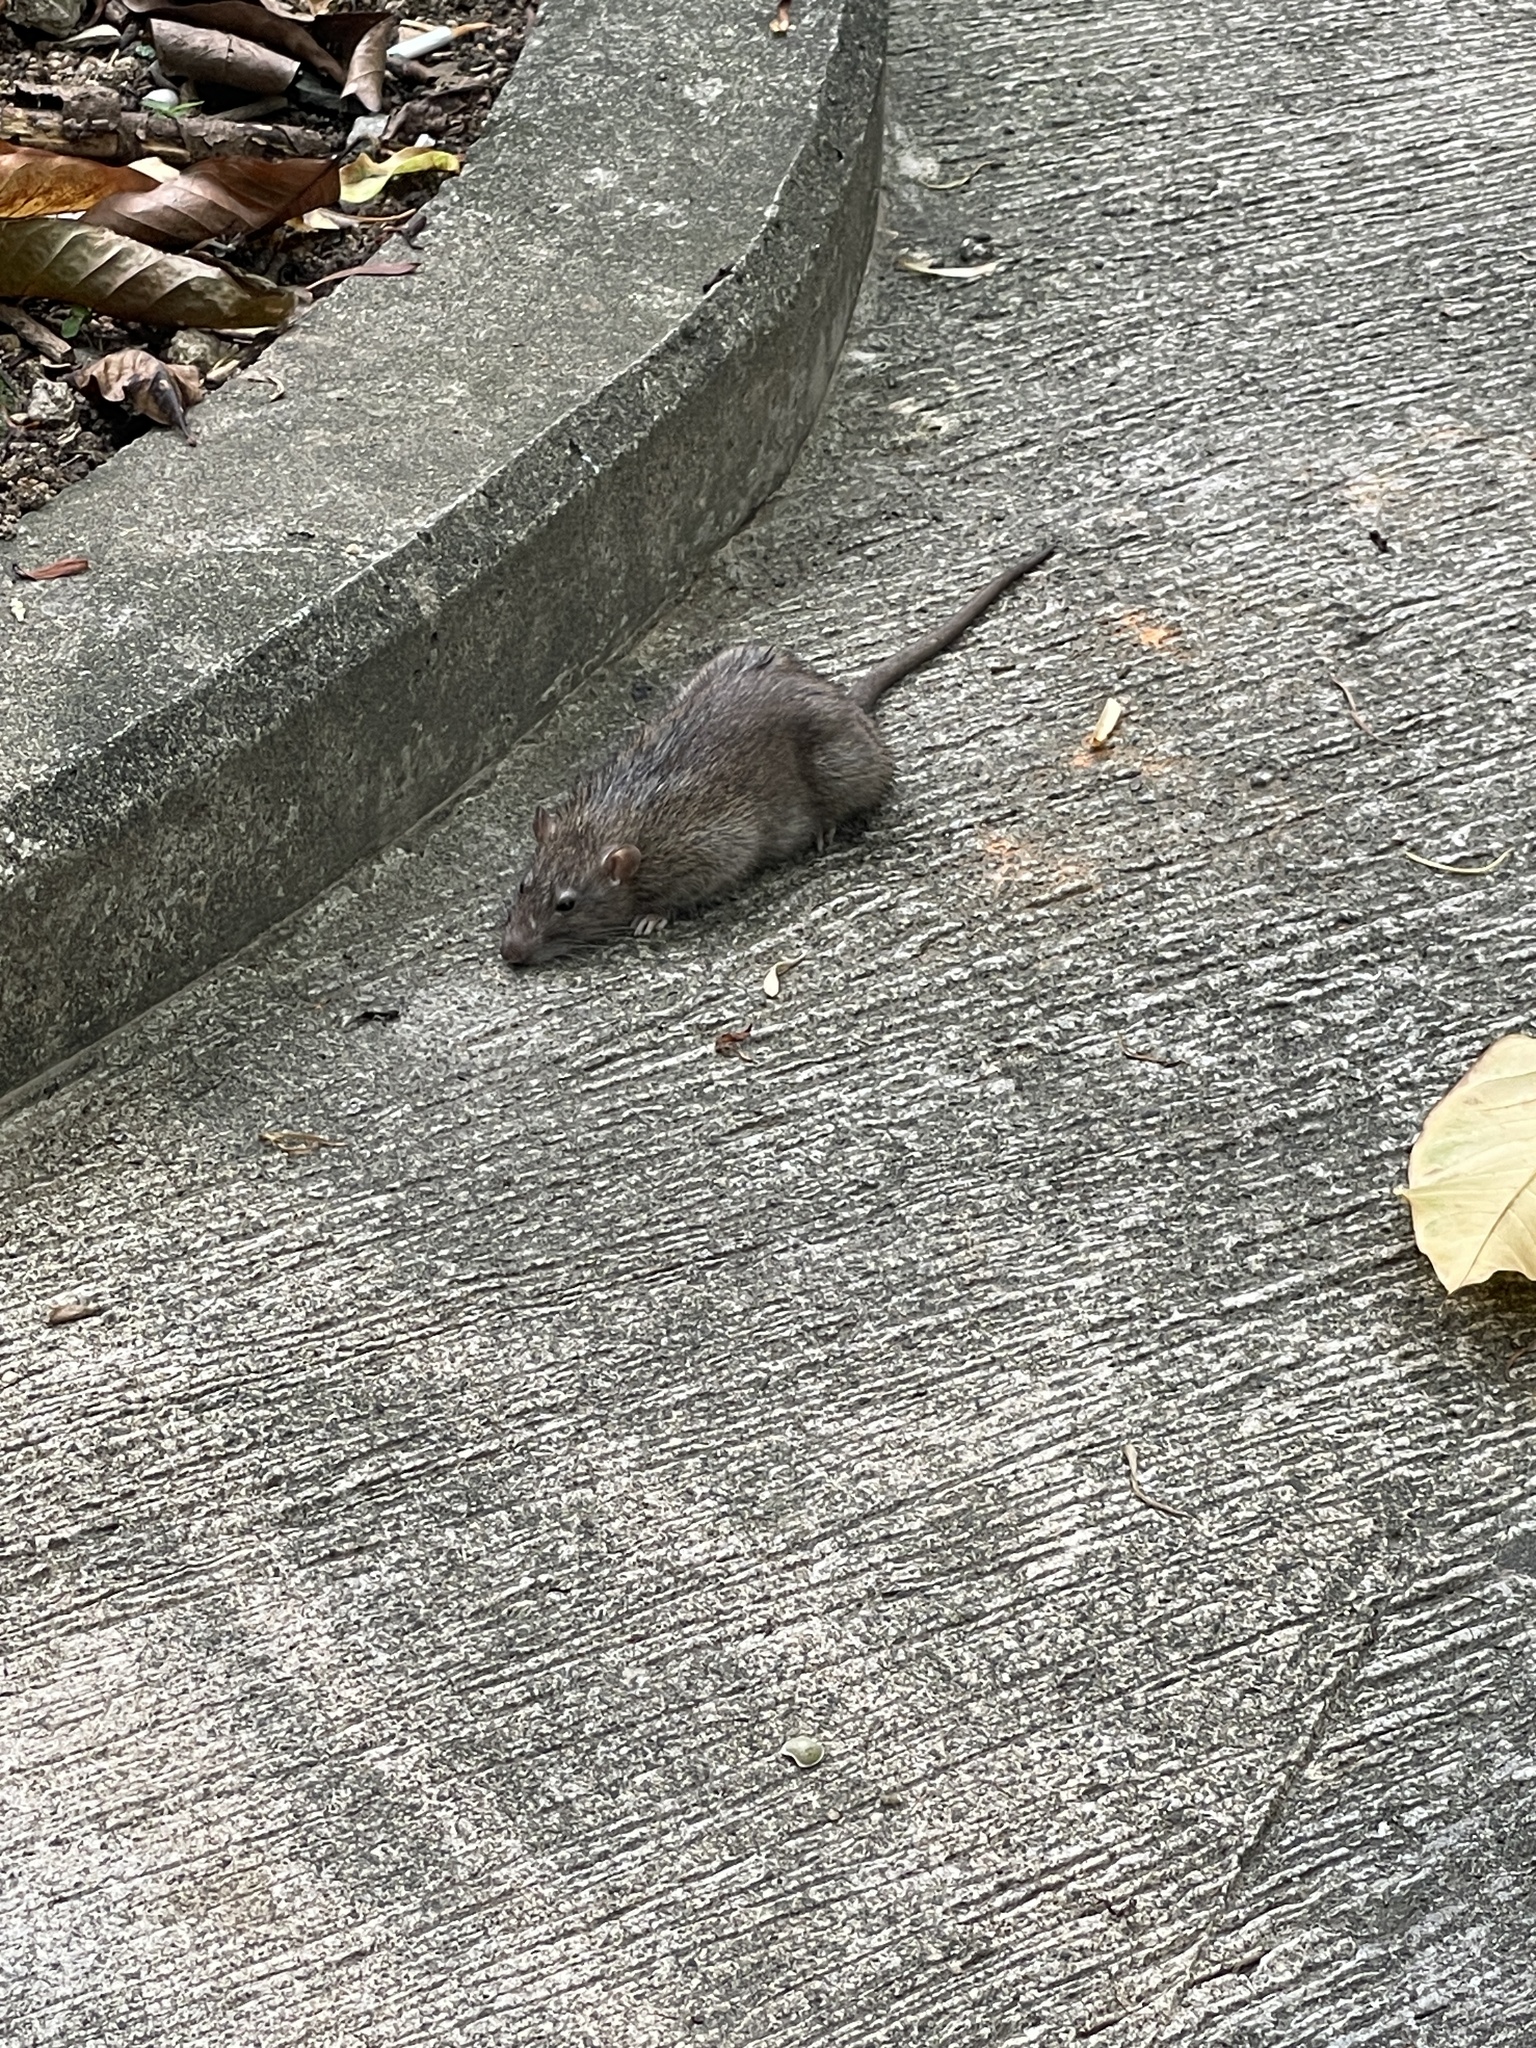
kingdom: Animalia
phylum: Chordata
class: Mammalia
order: Rodentia
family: Muridae
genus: Rattus
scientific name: Rattus norvegicus
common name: Brown rat
